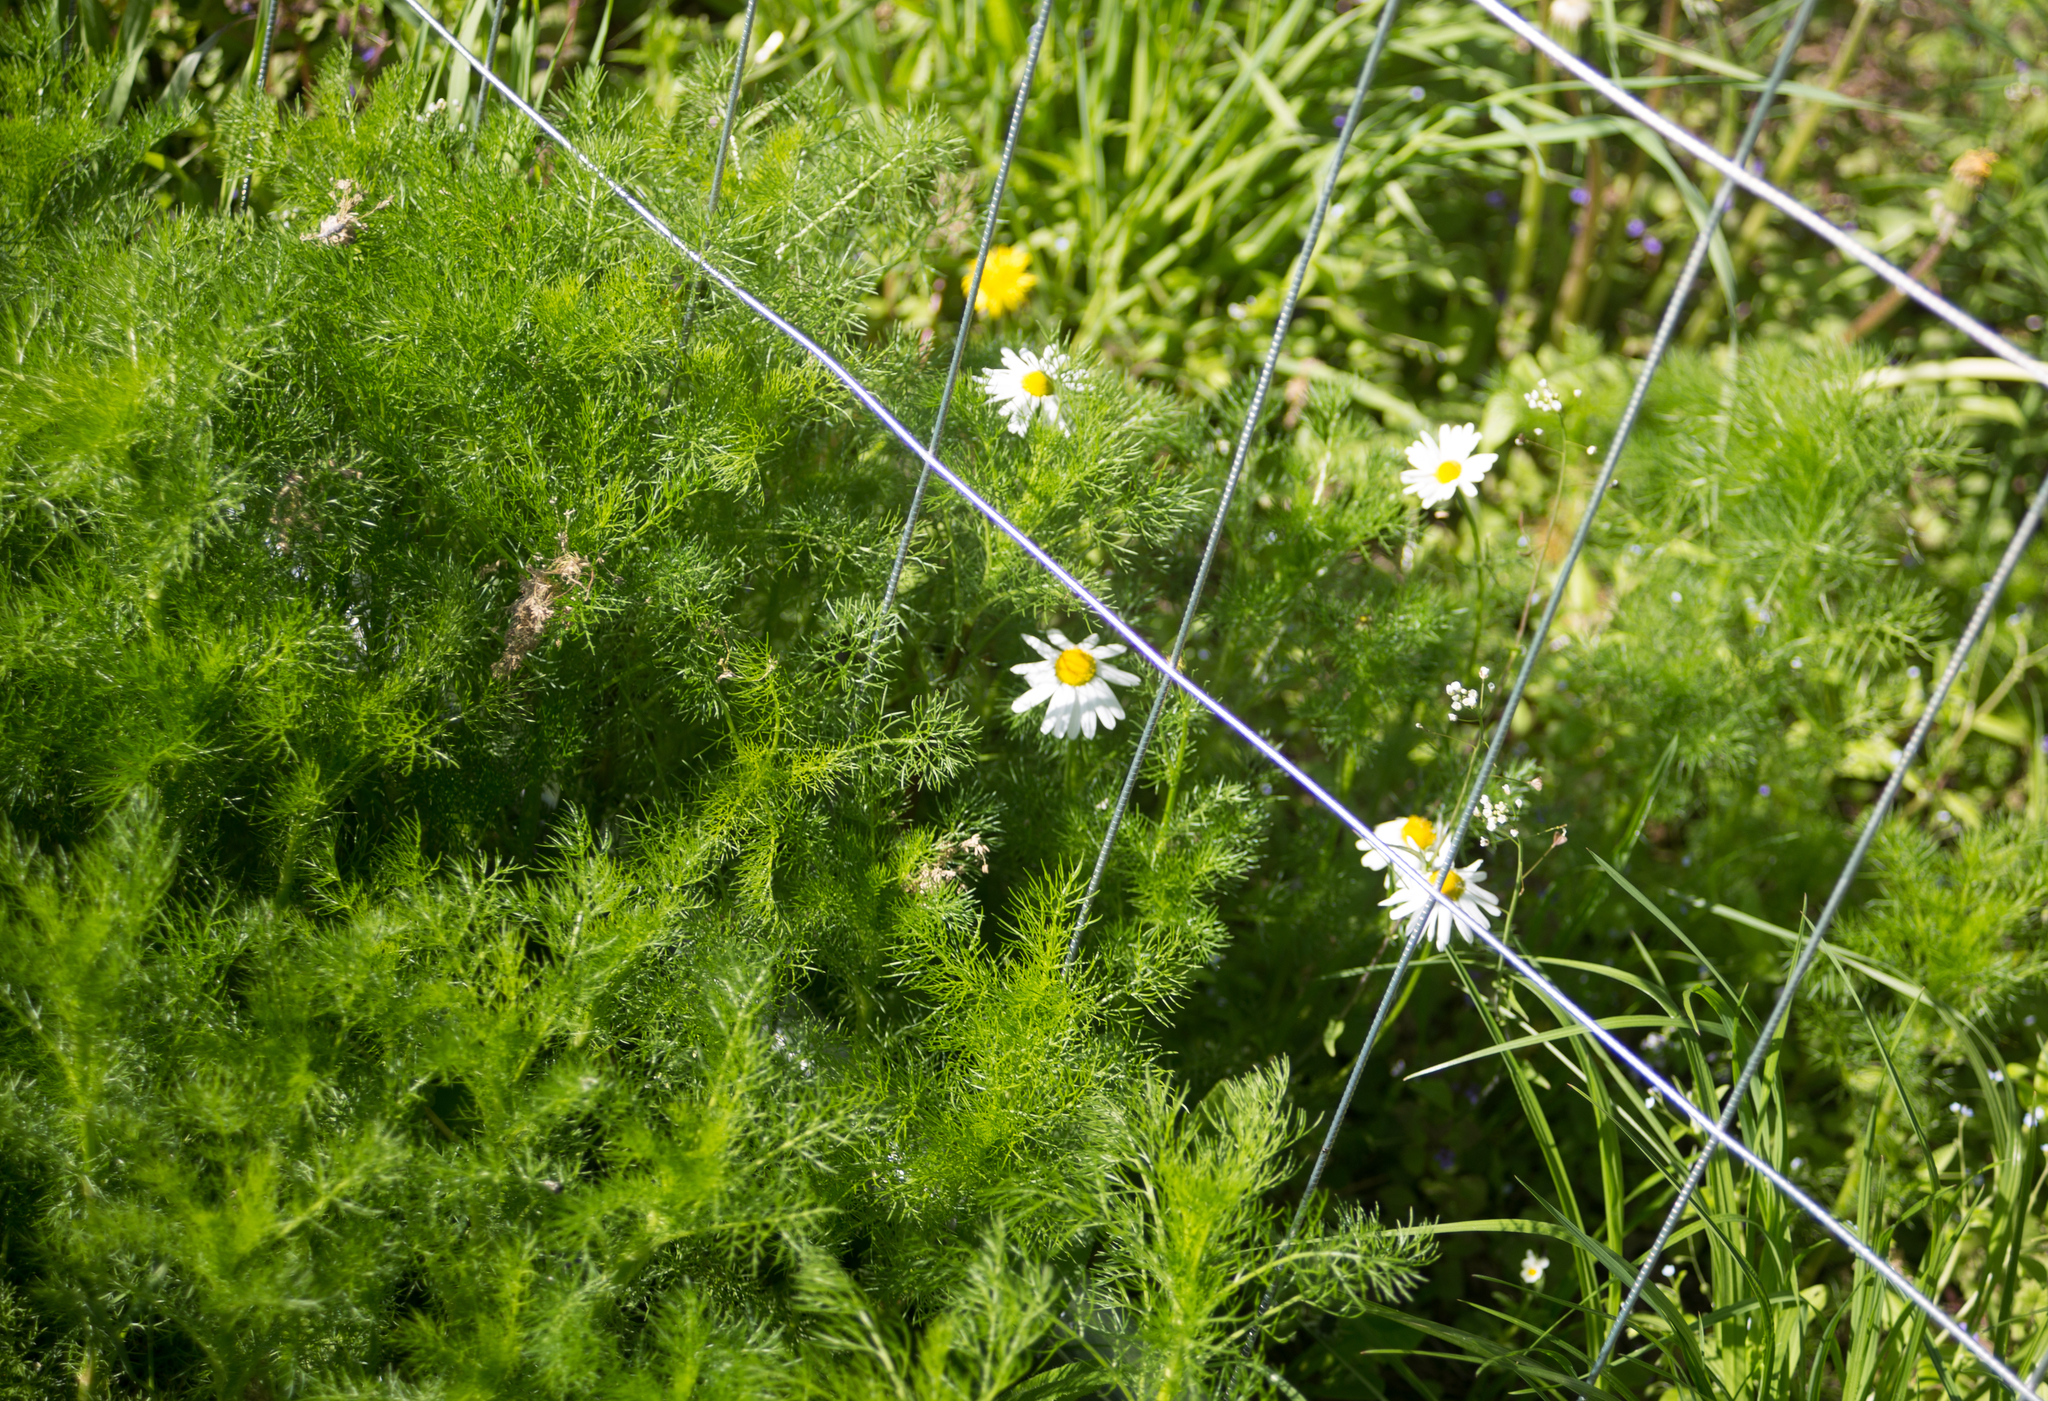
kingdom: Plantae
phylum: Tracheophyta
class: Magnoliopsida
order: Asterales
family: Asteraceae
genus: Tripleurospermum
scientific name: Tripleurospermum inodorum
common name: Scentless mayweed
